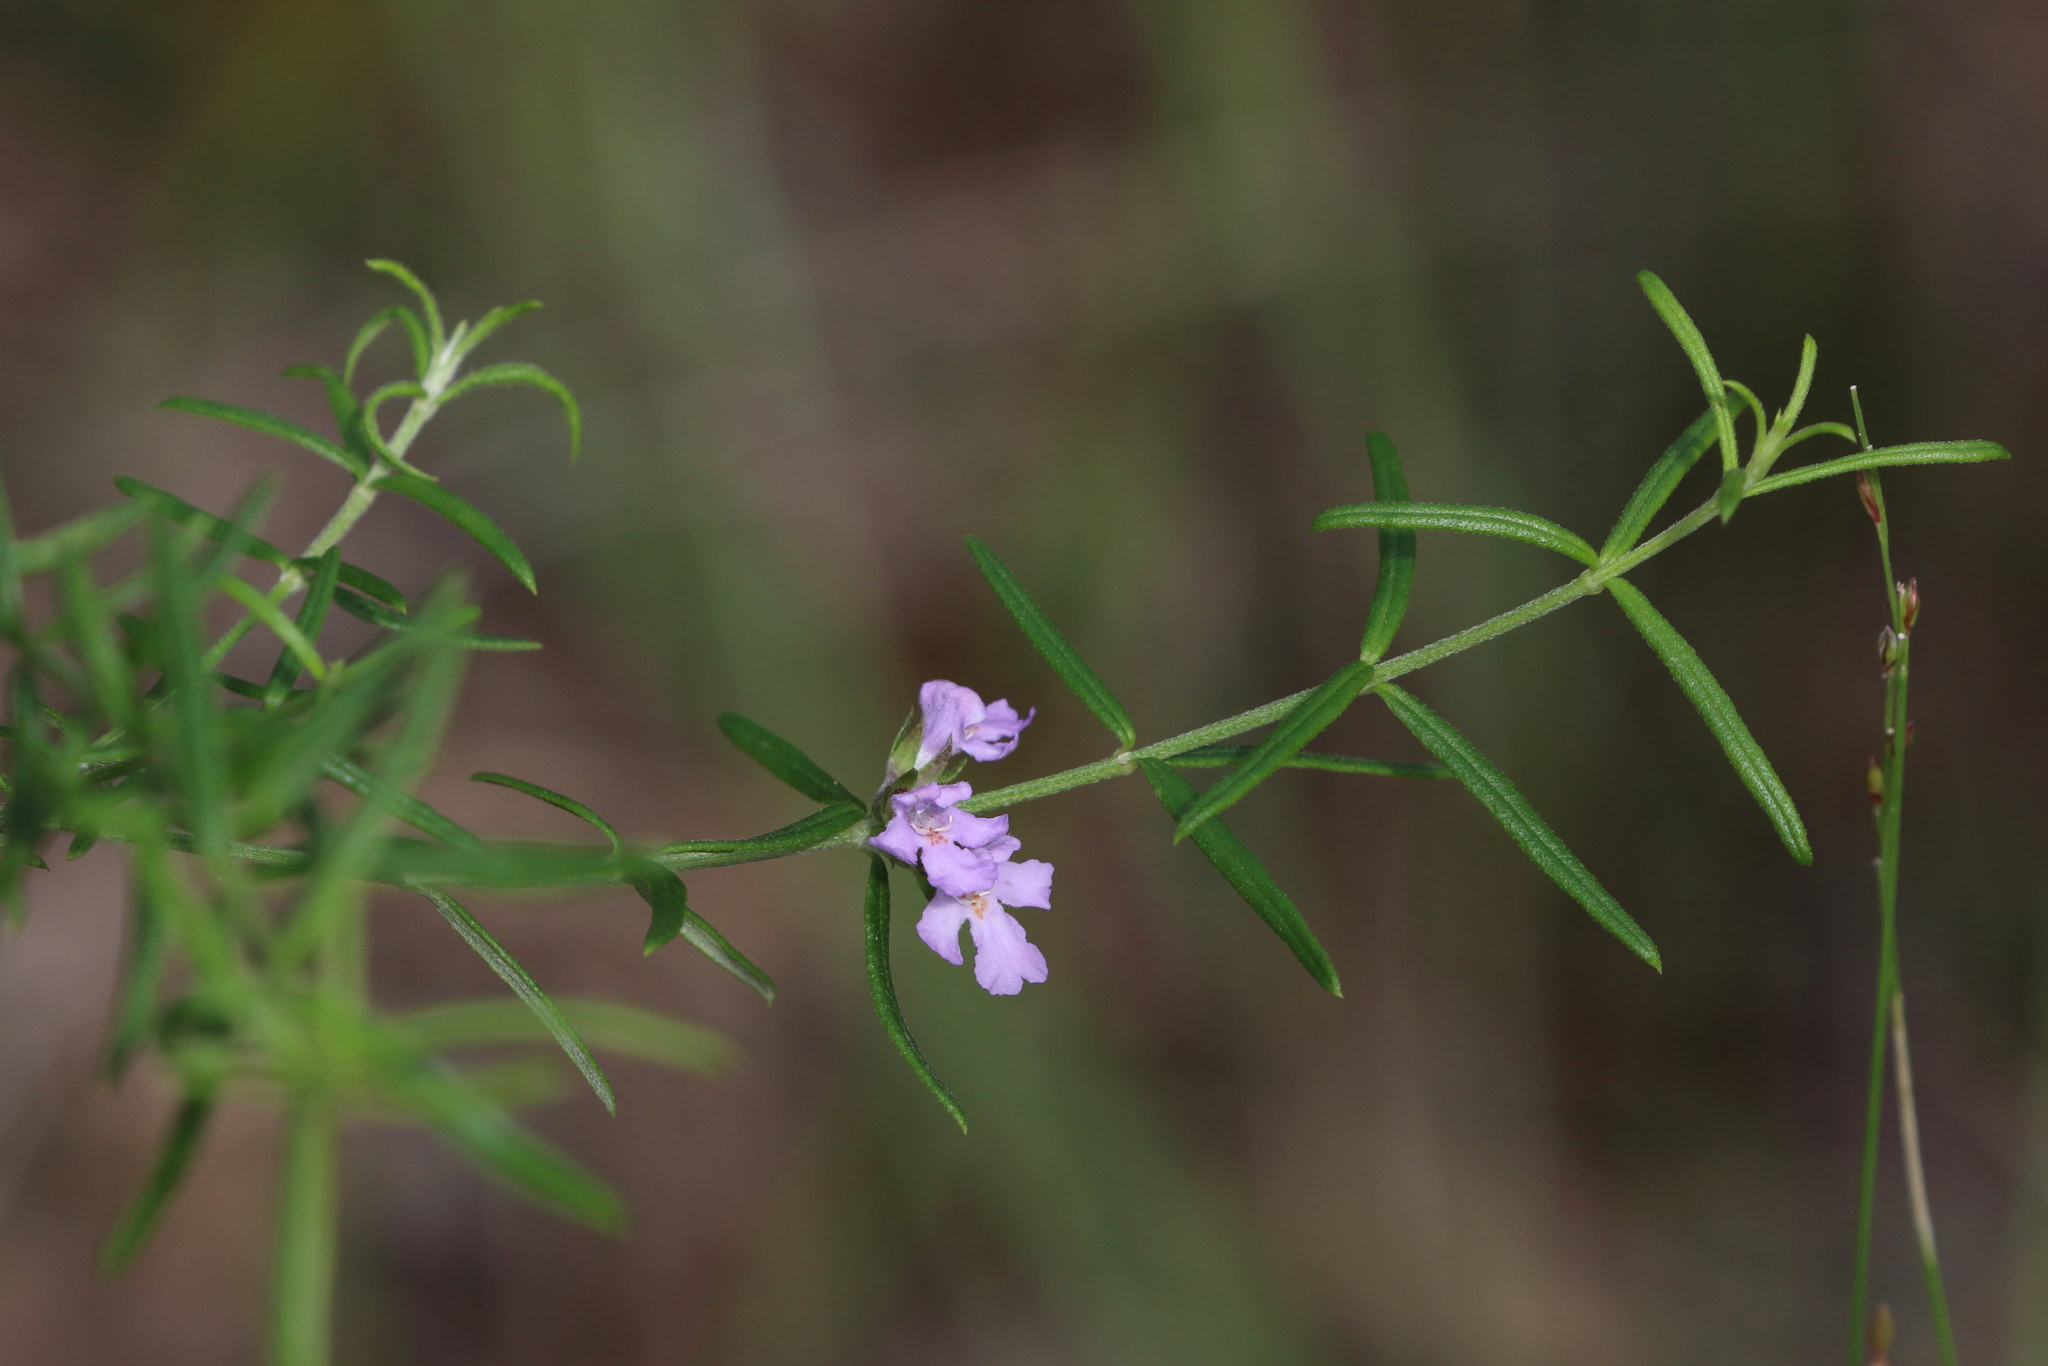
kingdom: Plantae
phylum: Tracheophyta
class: Magnoliopsida
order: Lamiales
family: Lamiaceae
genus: Westringia
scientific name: Westringia eremicola
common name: Slender western-rosemary
